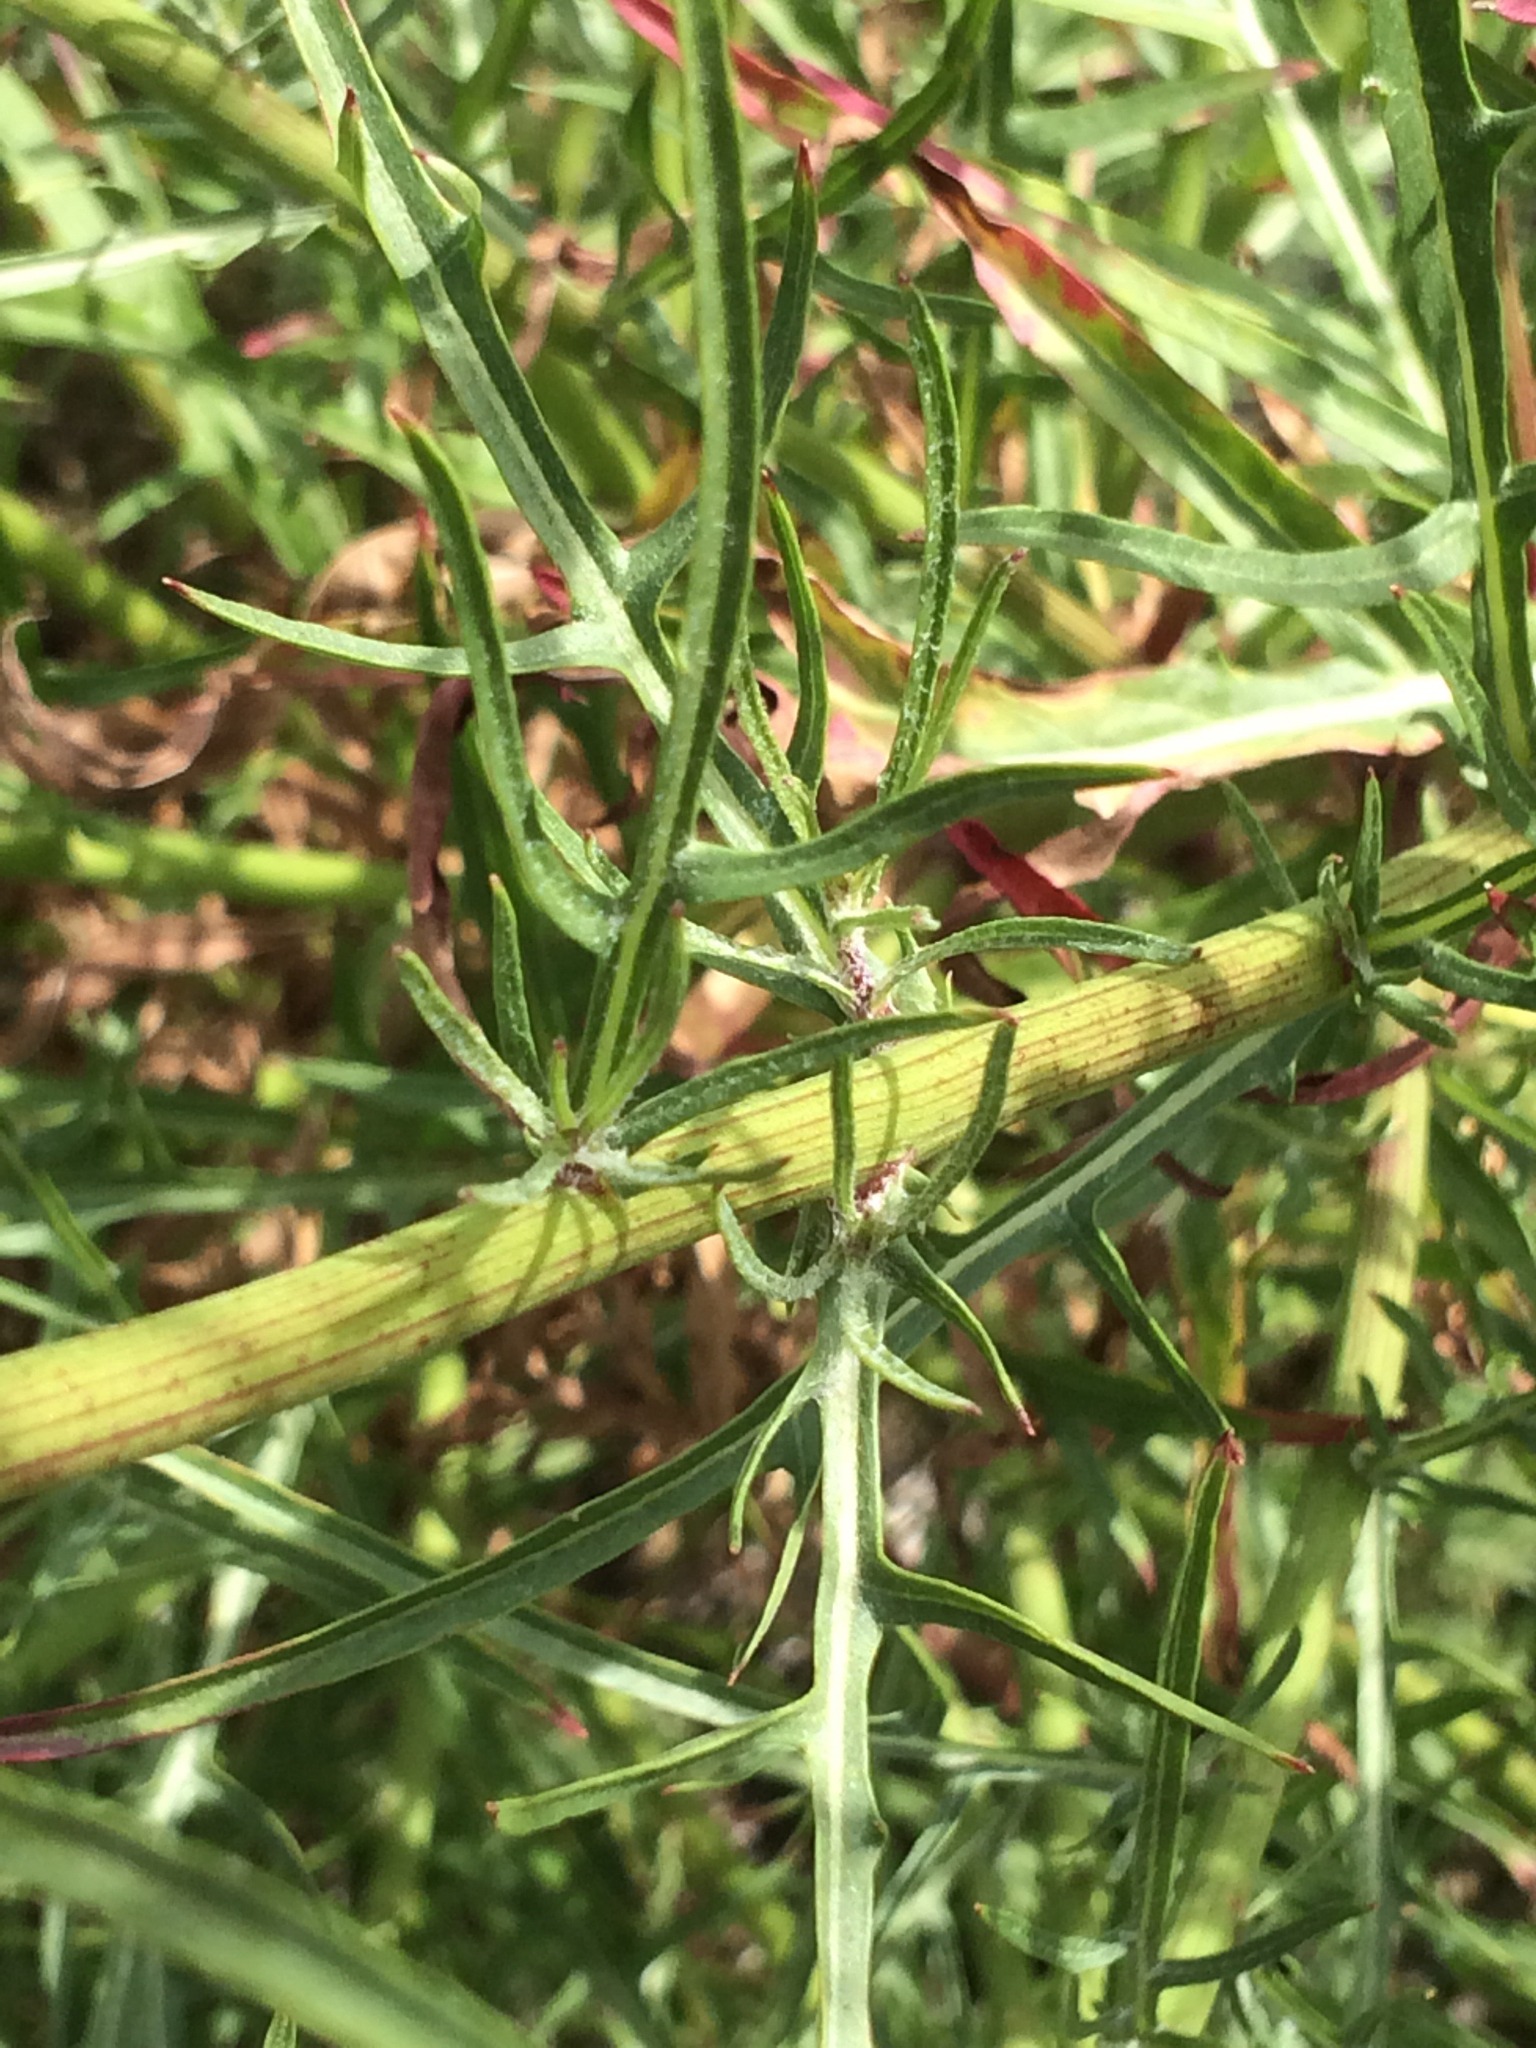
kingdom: Plantae
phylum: Tracheophyta
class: Magnoliopsida
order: Asterales
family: Asteraceae
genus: Malacothrix
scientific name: Malacothrix saxatilis
